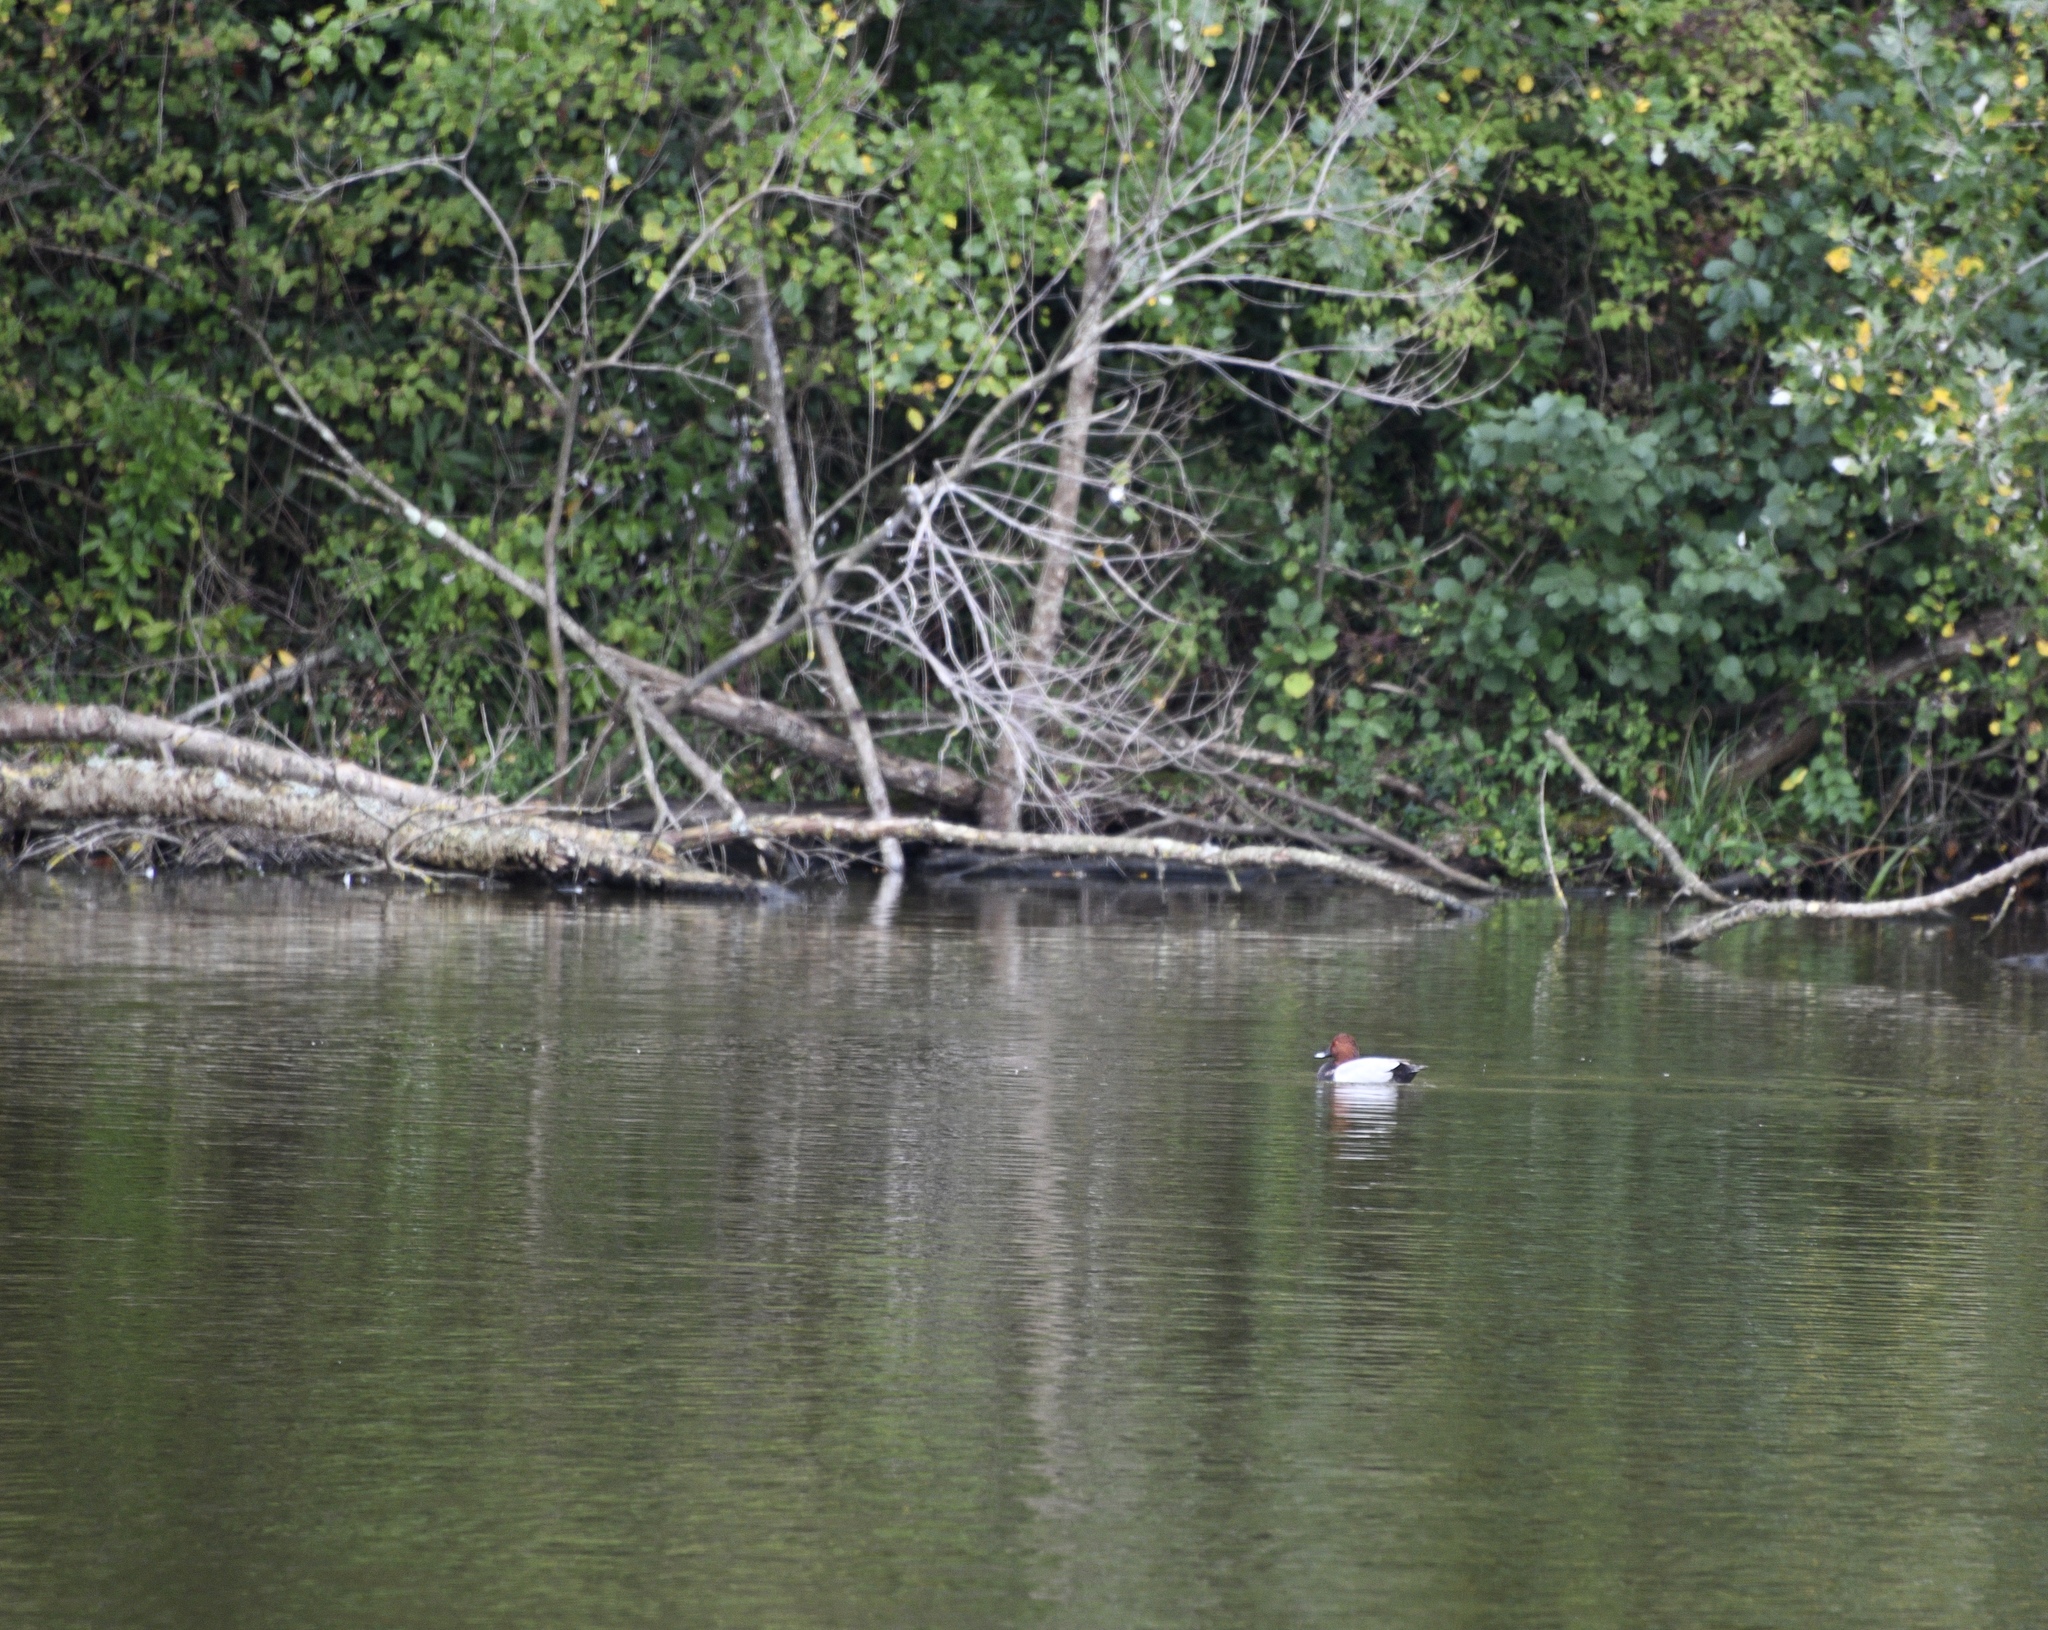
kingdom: Animalia
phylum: Chordata
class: Aves
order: Anseriformes
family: Anatidae
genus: Aythya
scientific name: Aythya ferina
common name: Common pochard
